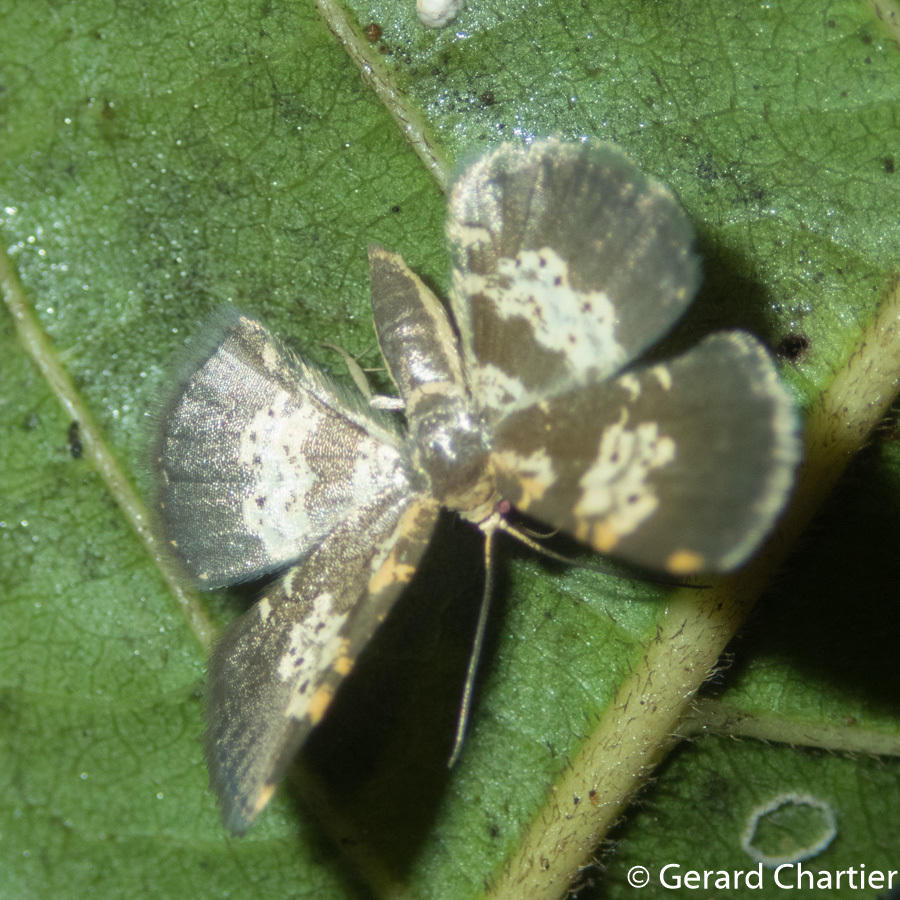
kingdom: Animalia
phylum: Arthropoda
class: Insecta
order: Lepidoptera
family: Geometridae
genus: Peratophyga
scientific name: Peratophyga bifasciata
